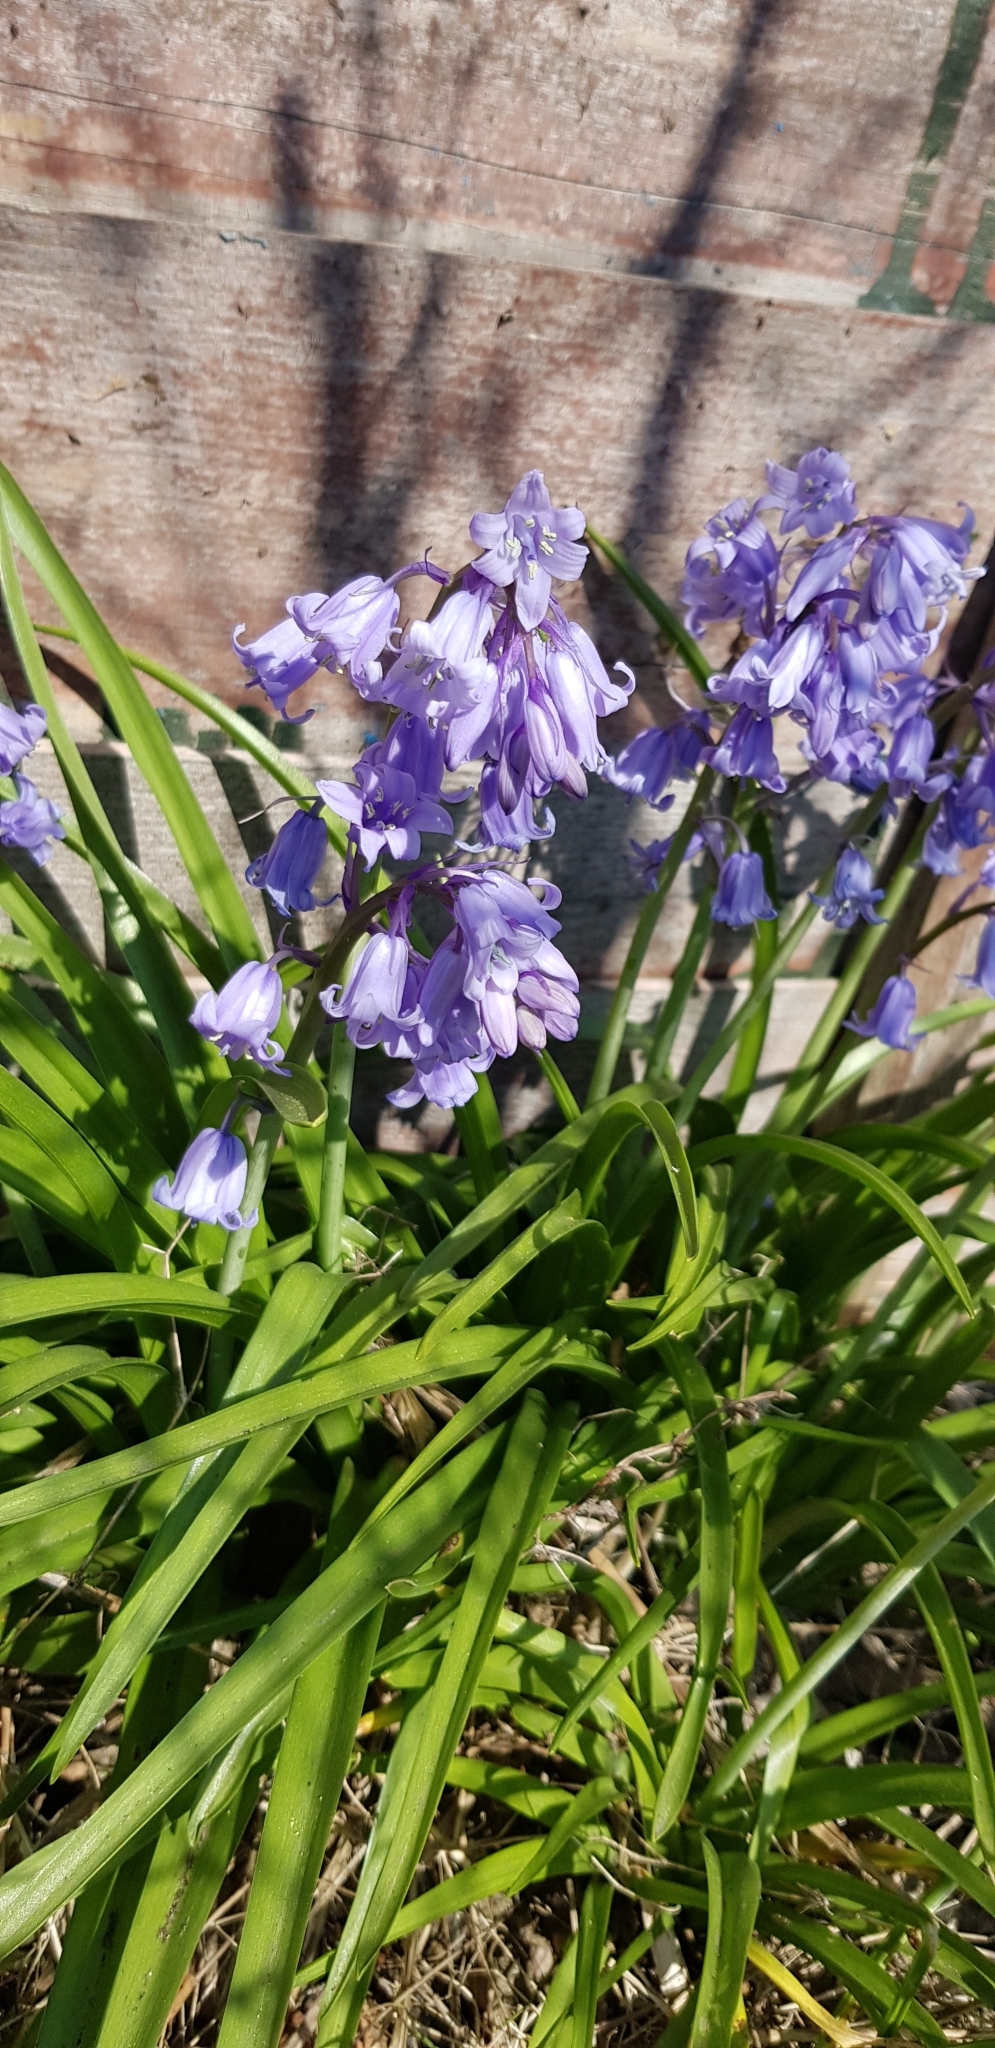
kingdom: Plantae
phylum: Tracheophyta
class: Liliopsida
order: Asparagales
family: Asparagaceae
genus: Hyacinthoides
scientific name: Hyacinthoides hispanica
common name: Spanish bluebell
